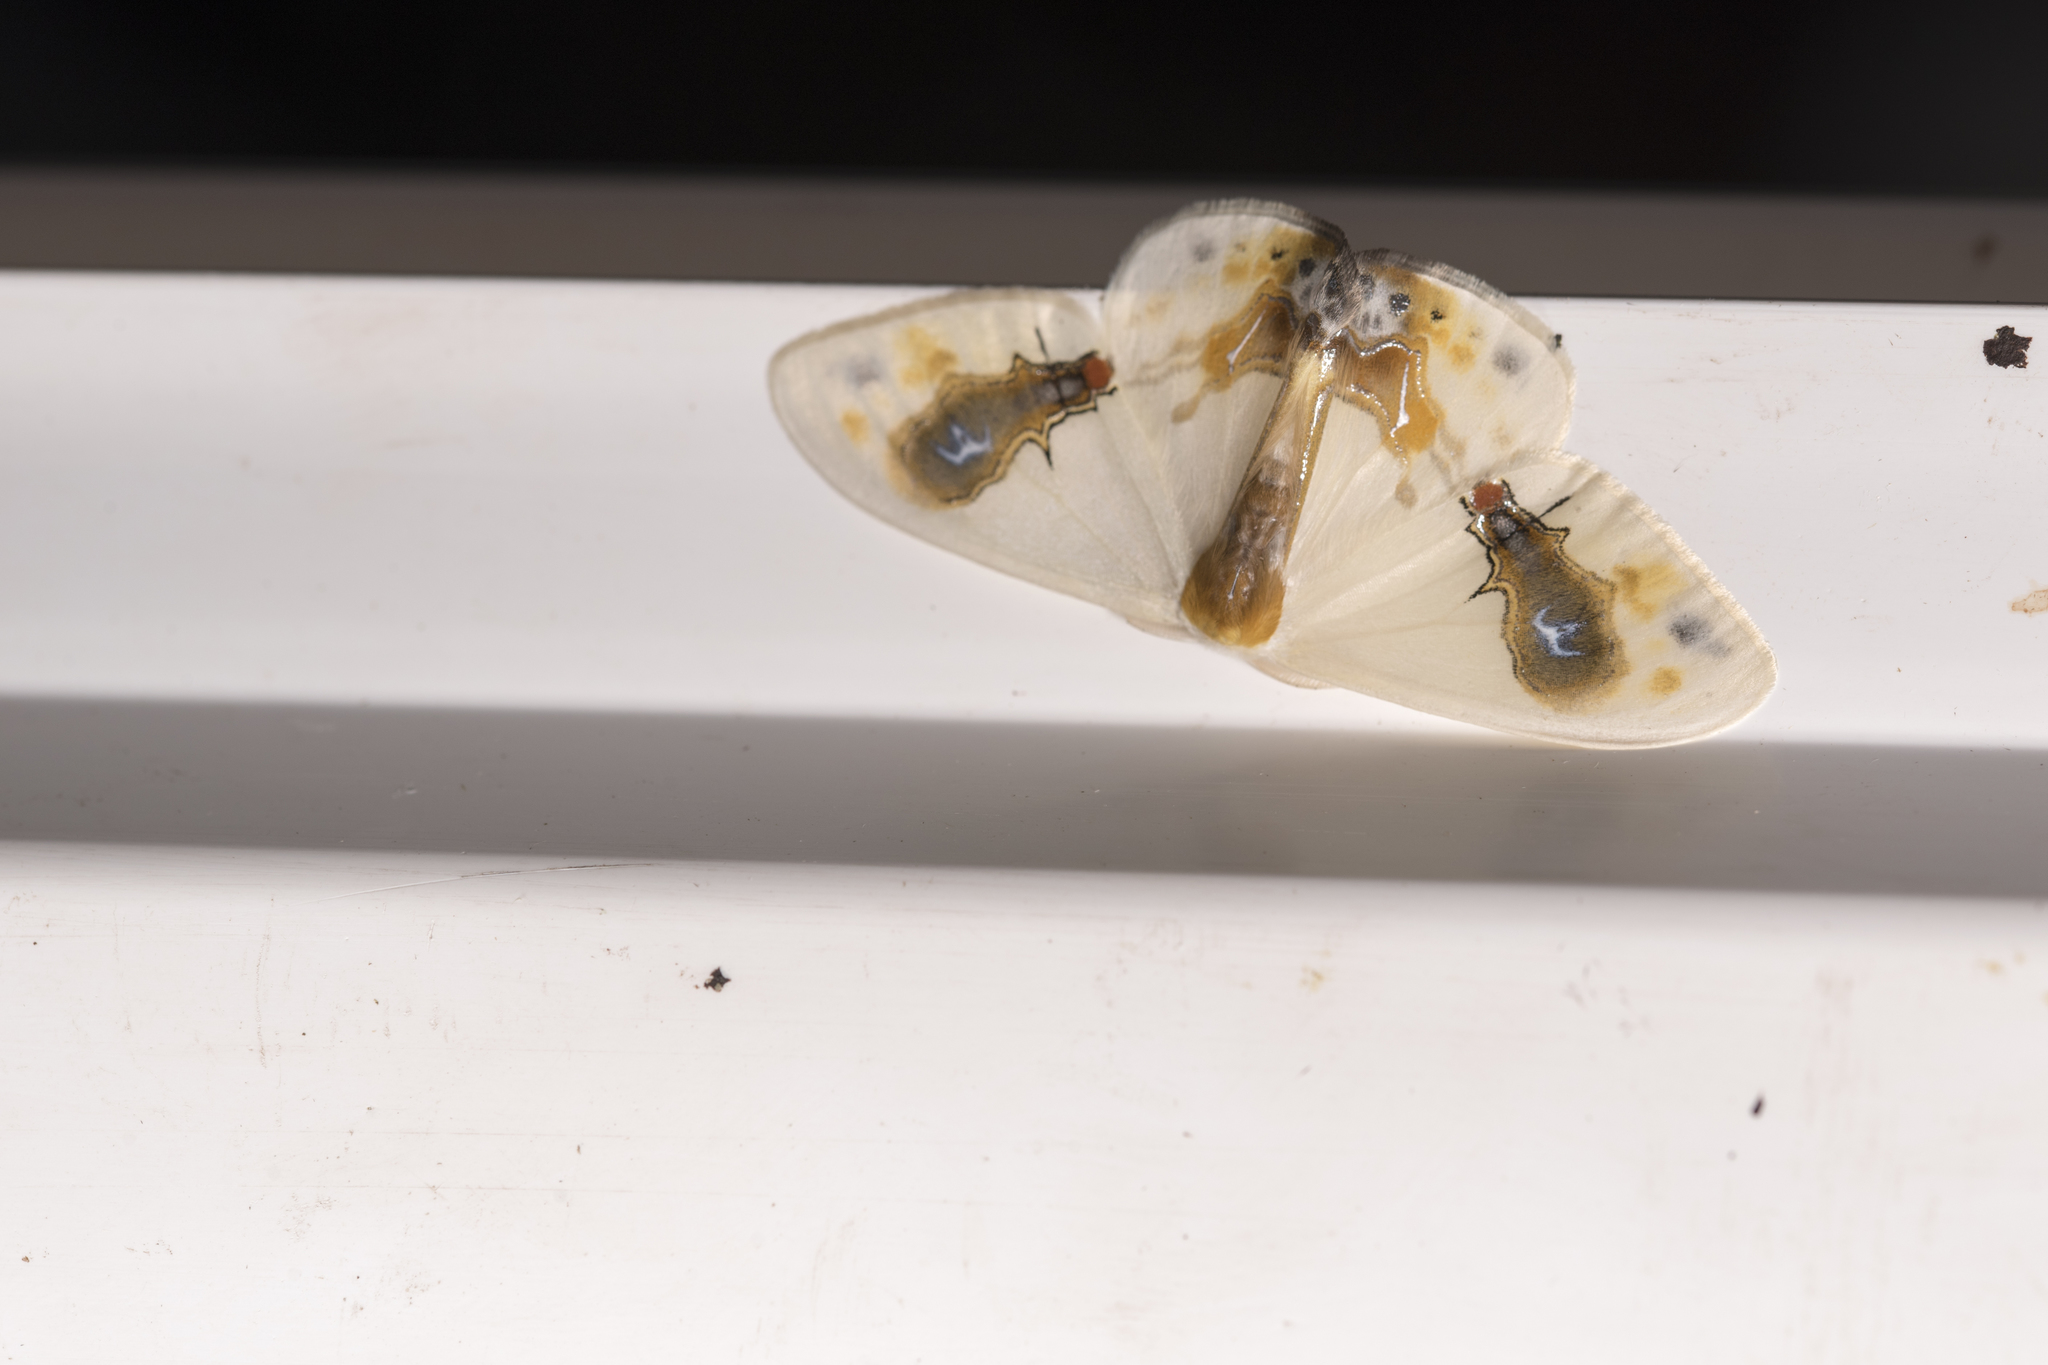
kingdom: Animalia
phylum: Arthropoda
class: Insecta
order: Lepidoptera
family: Drepanidae
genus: Macrocilix
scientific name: Macrocilix maia
